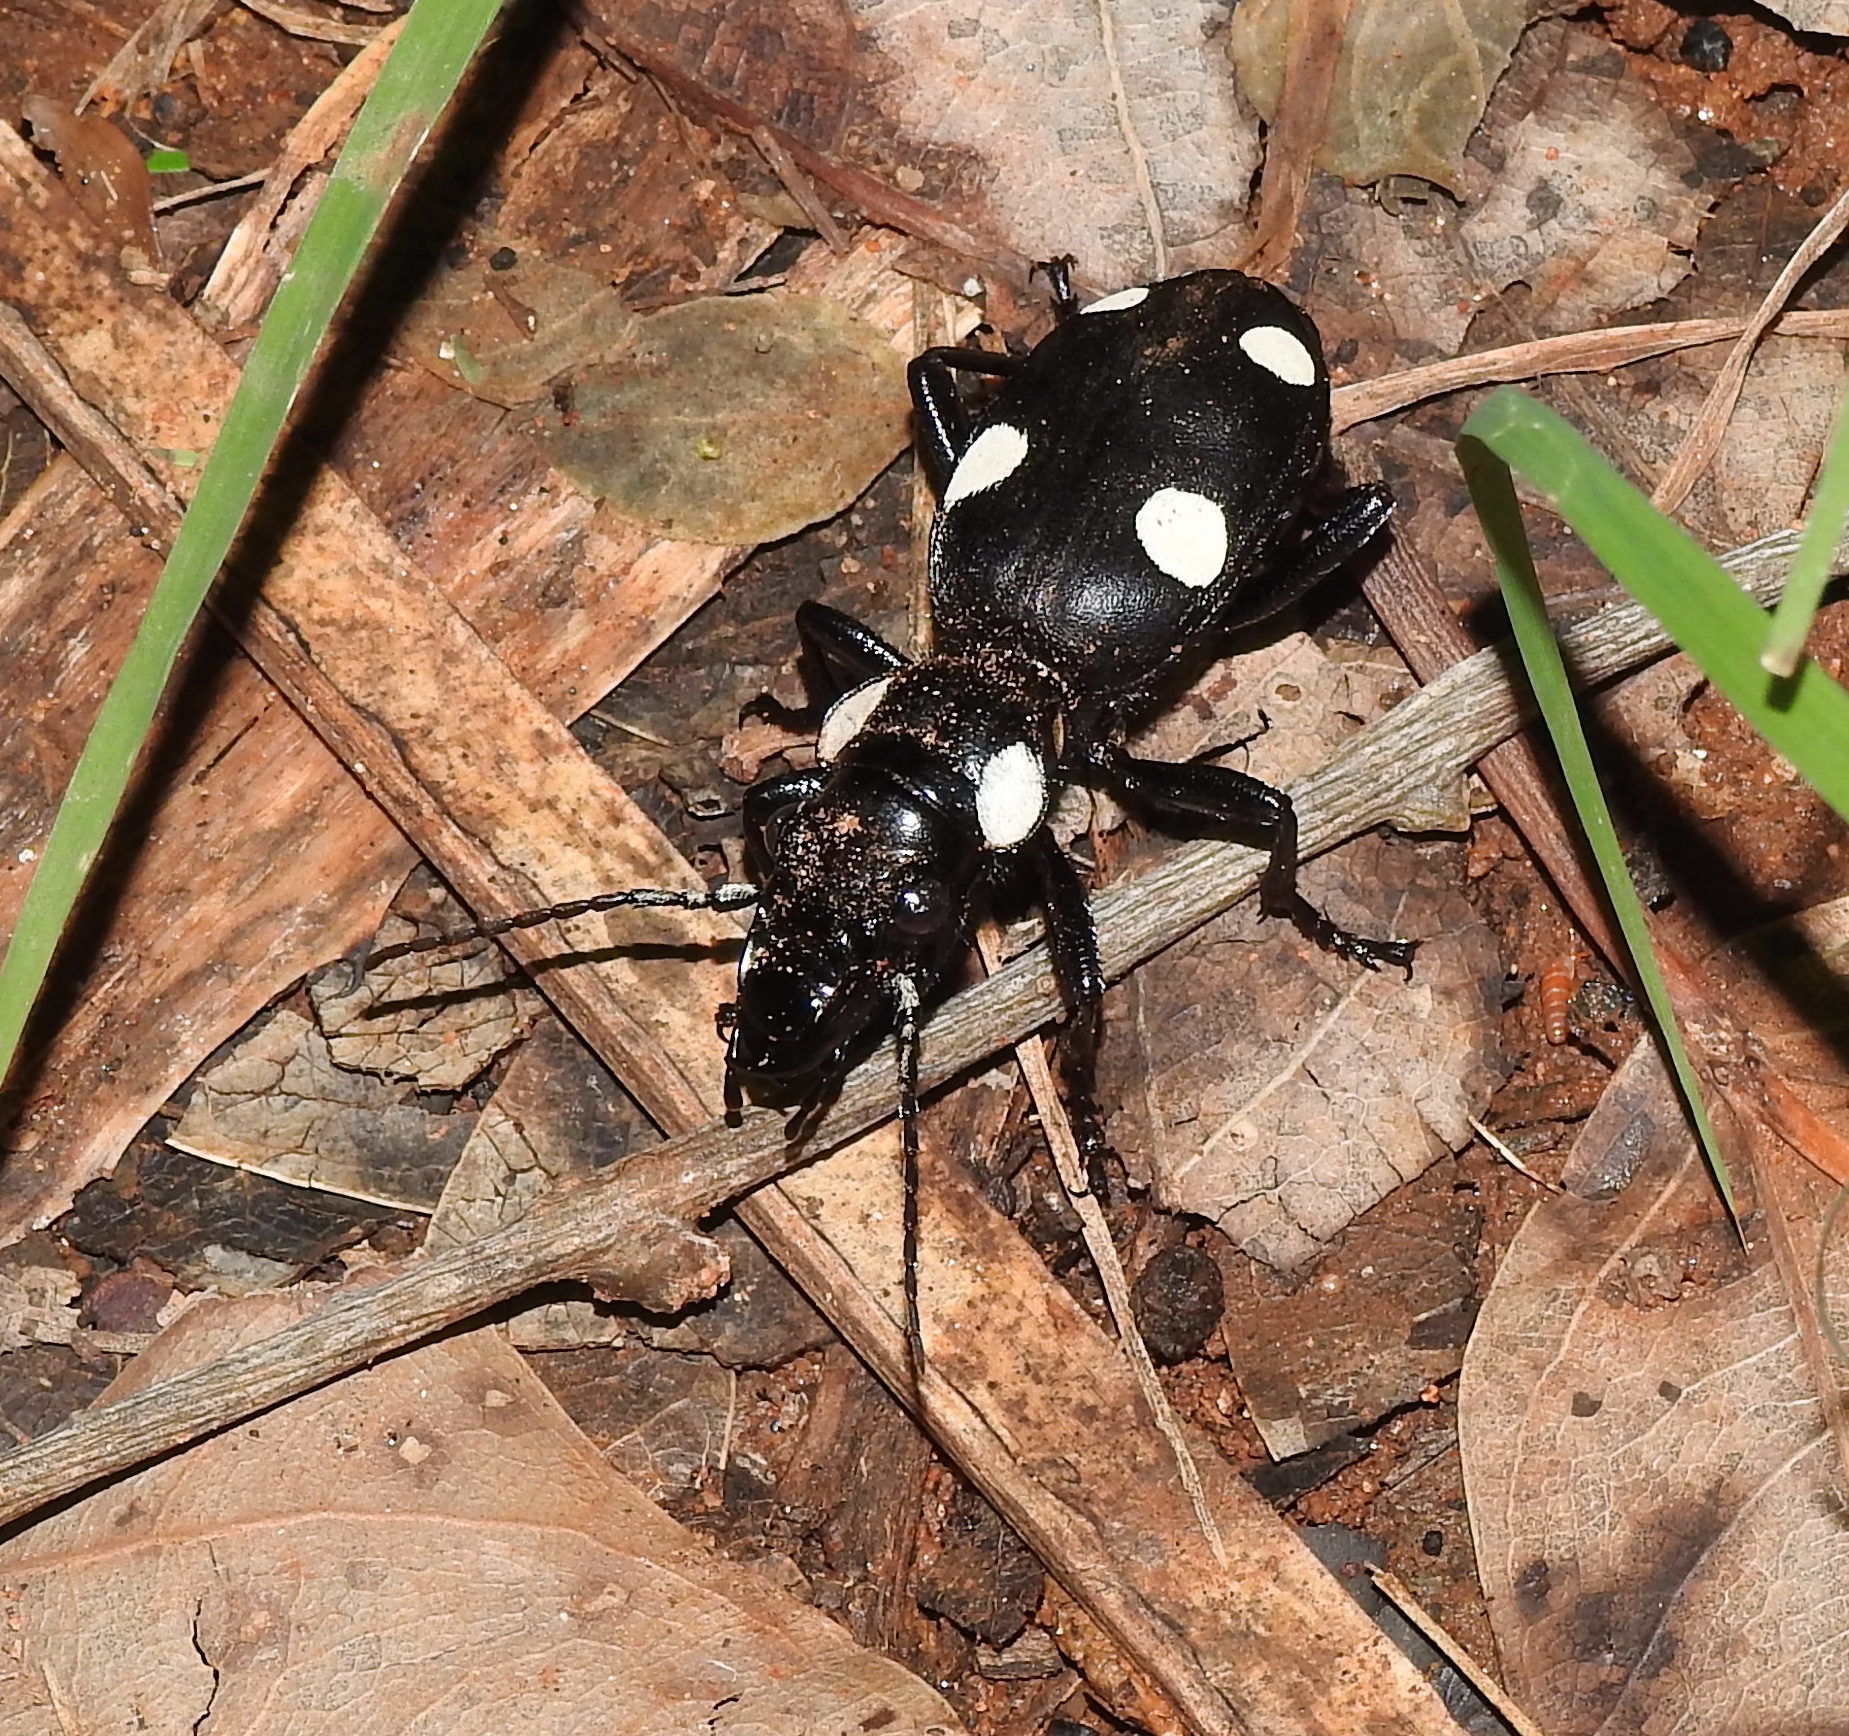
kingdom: Animalia
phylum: Arthropoda
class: Insecta
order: Coleoptera
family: Carabidae
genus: Anthia
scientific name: Anthia sexguttata
